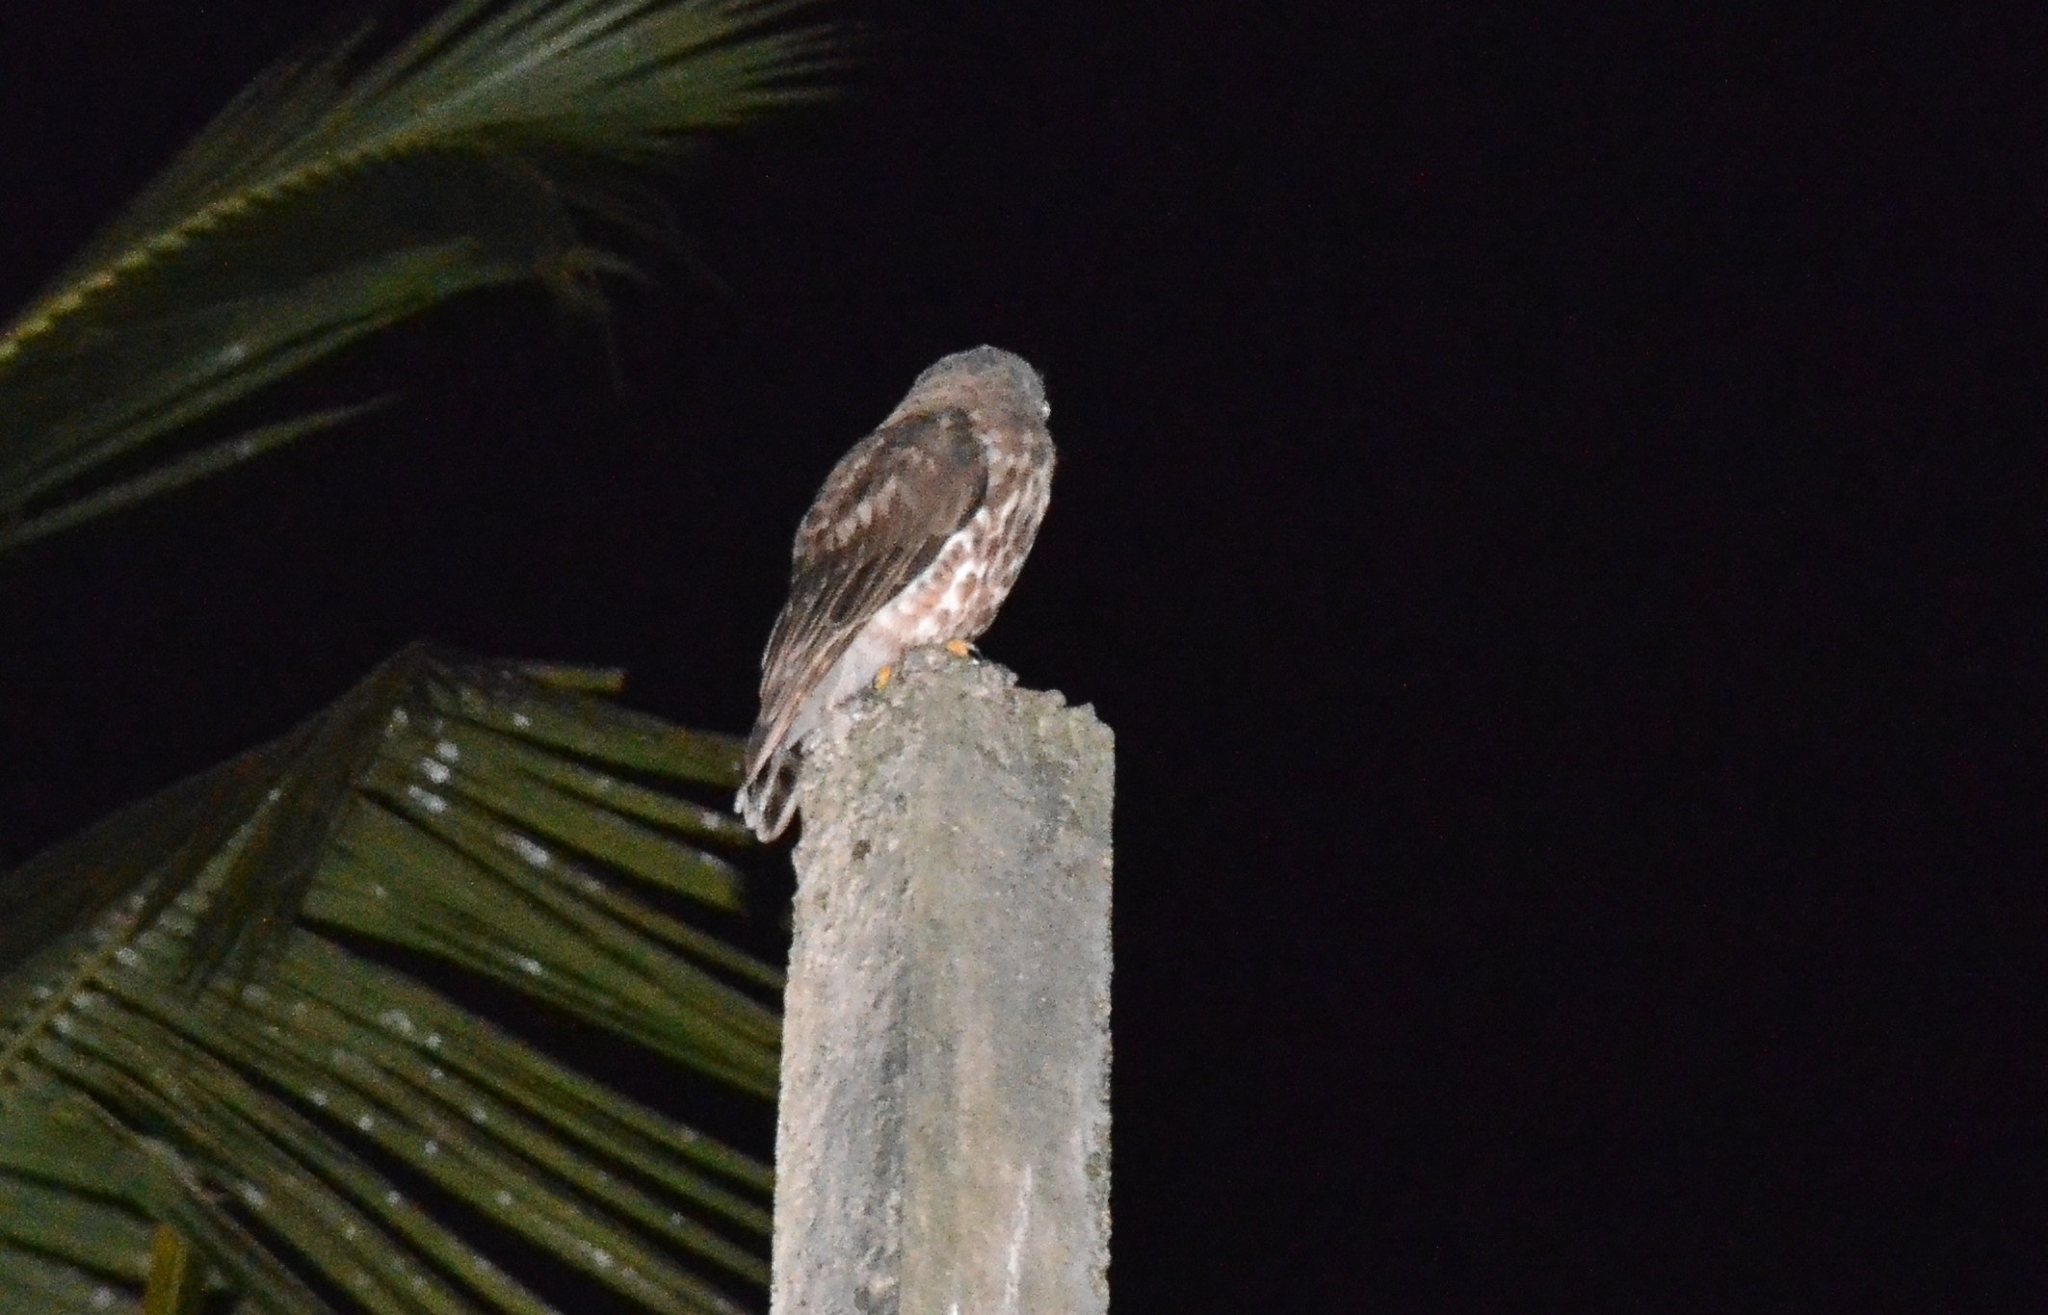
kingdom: Animalia
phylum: Chordata
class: Aves
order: Strigiformes
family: Strigidae
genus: Ninox
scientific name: Ninox scutulata
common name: Brown hawk-owl
